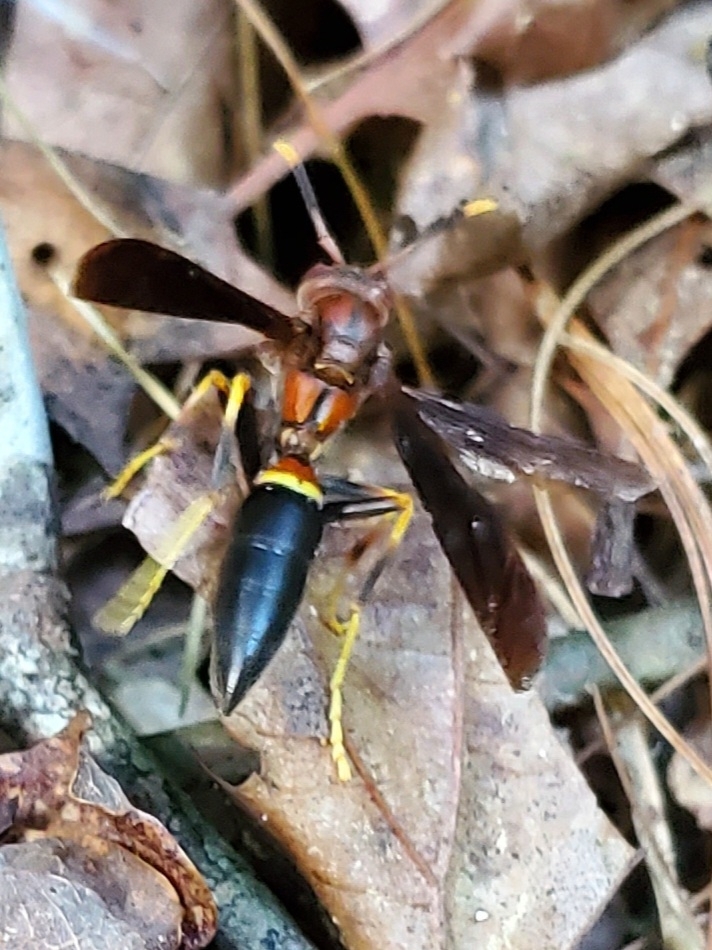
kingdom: Animalia
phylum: Arthropoda
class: Insecta
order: Hymenoptera
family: Eumenidae
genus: Polistes
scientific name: Polistes annularis
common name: Ringed paper wasp
